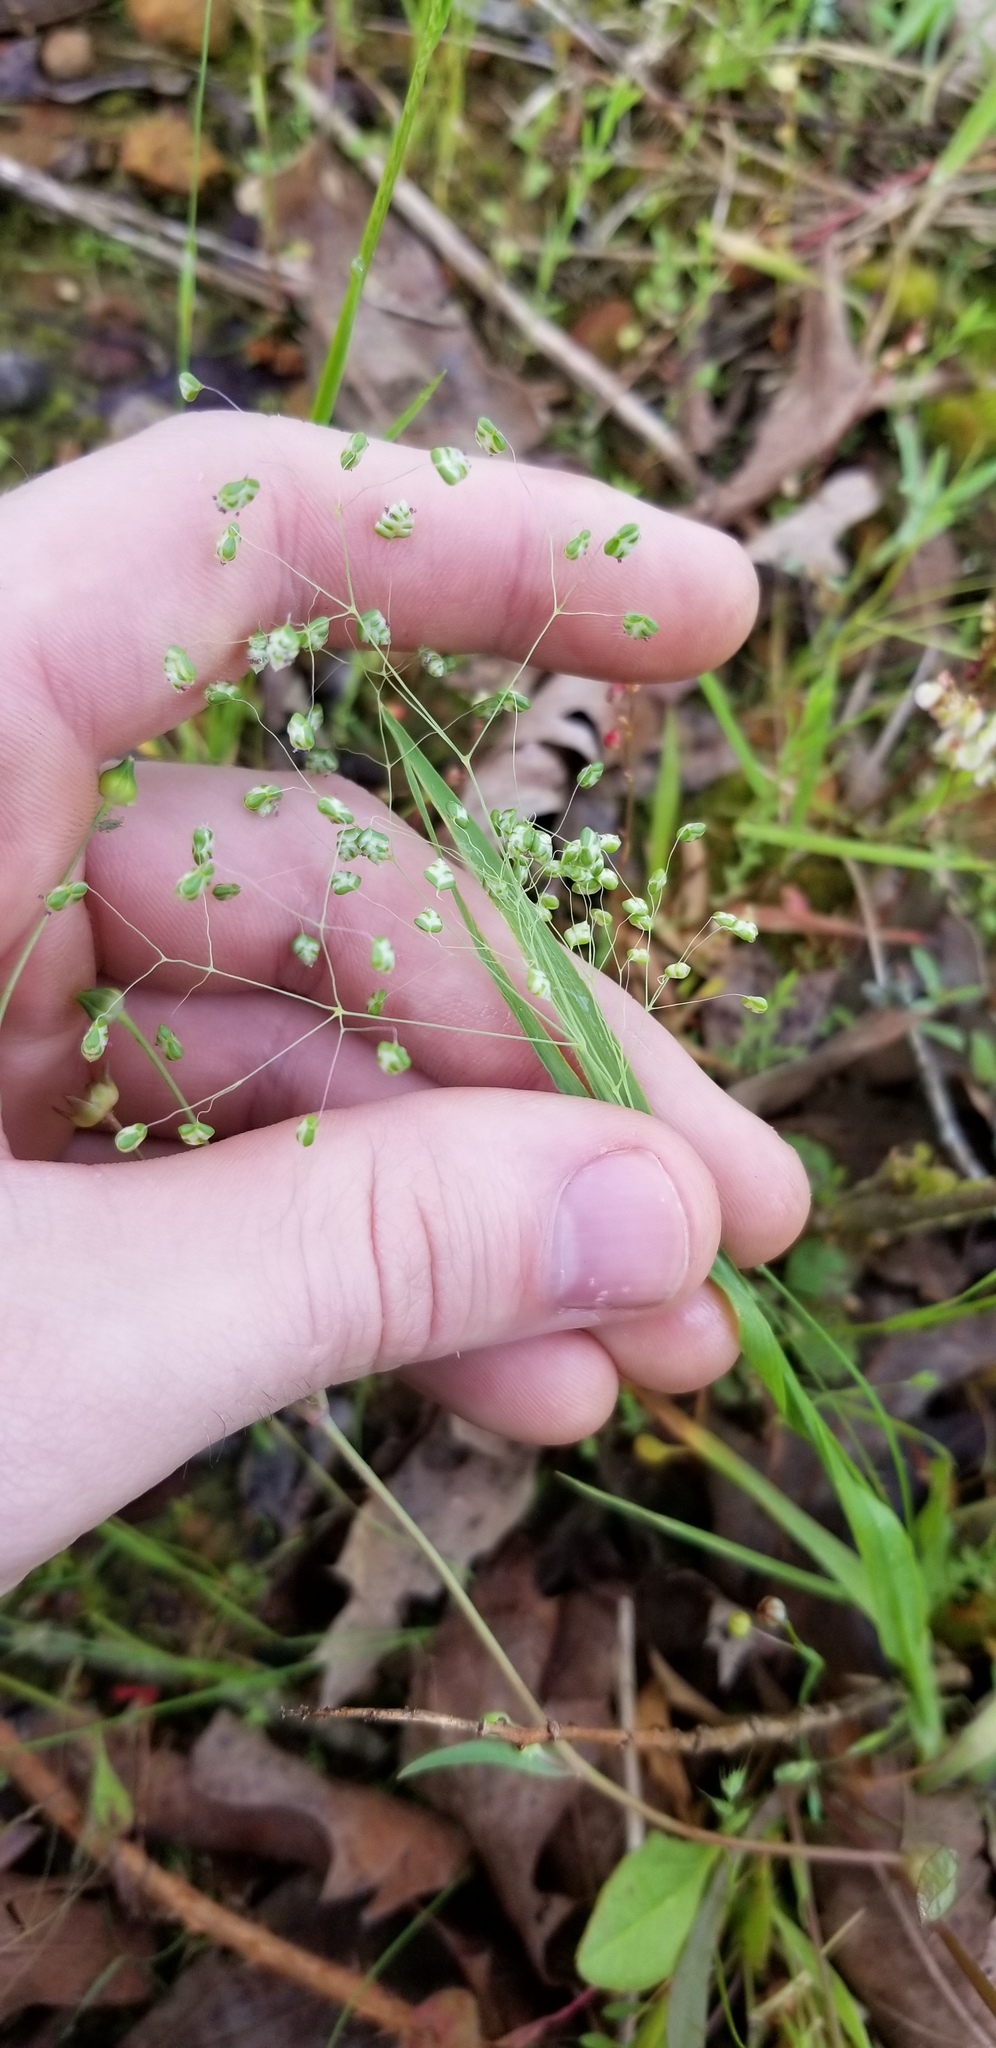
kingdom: Plantae
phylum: Tracheophyta
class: Liliopsida
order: Poales
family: Poaceae
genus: Briza
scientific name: Briza minor
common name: Lesser quaking-grass
